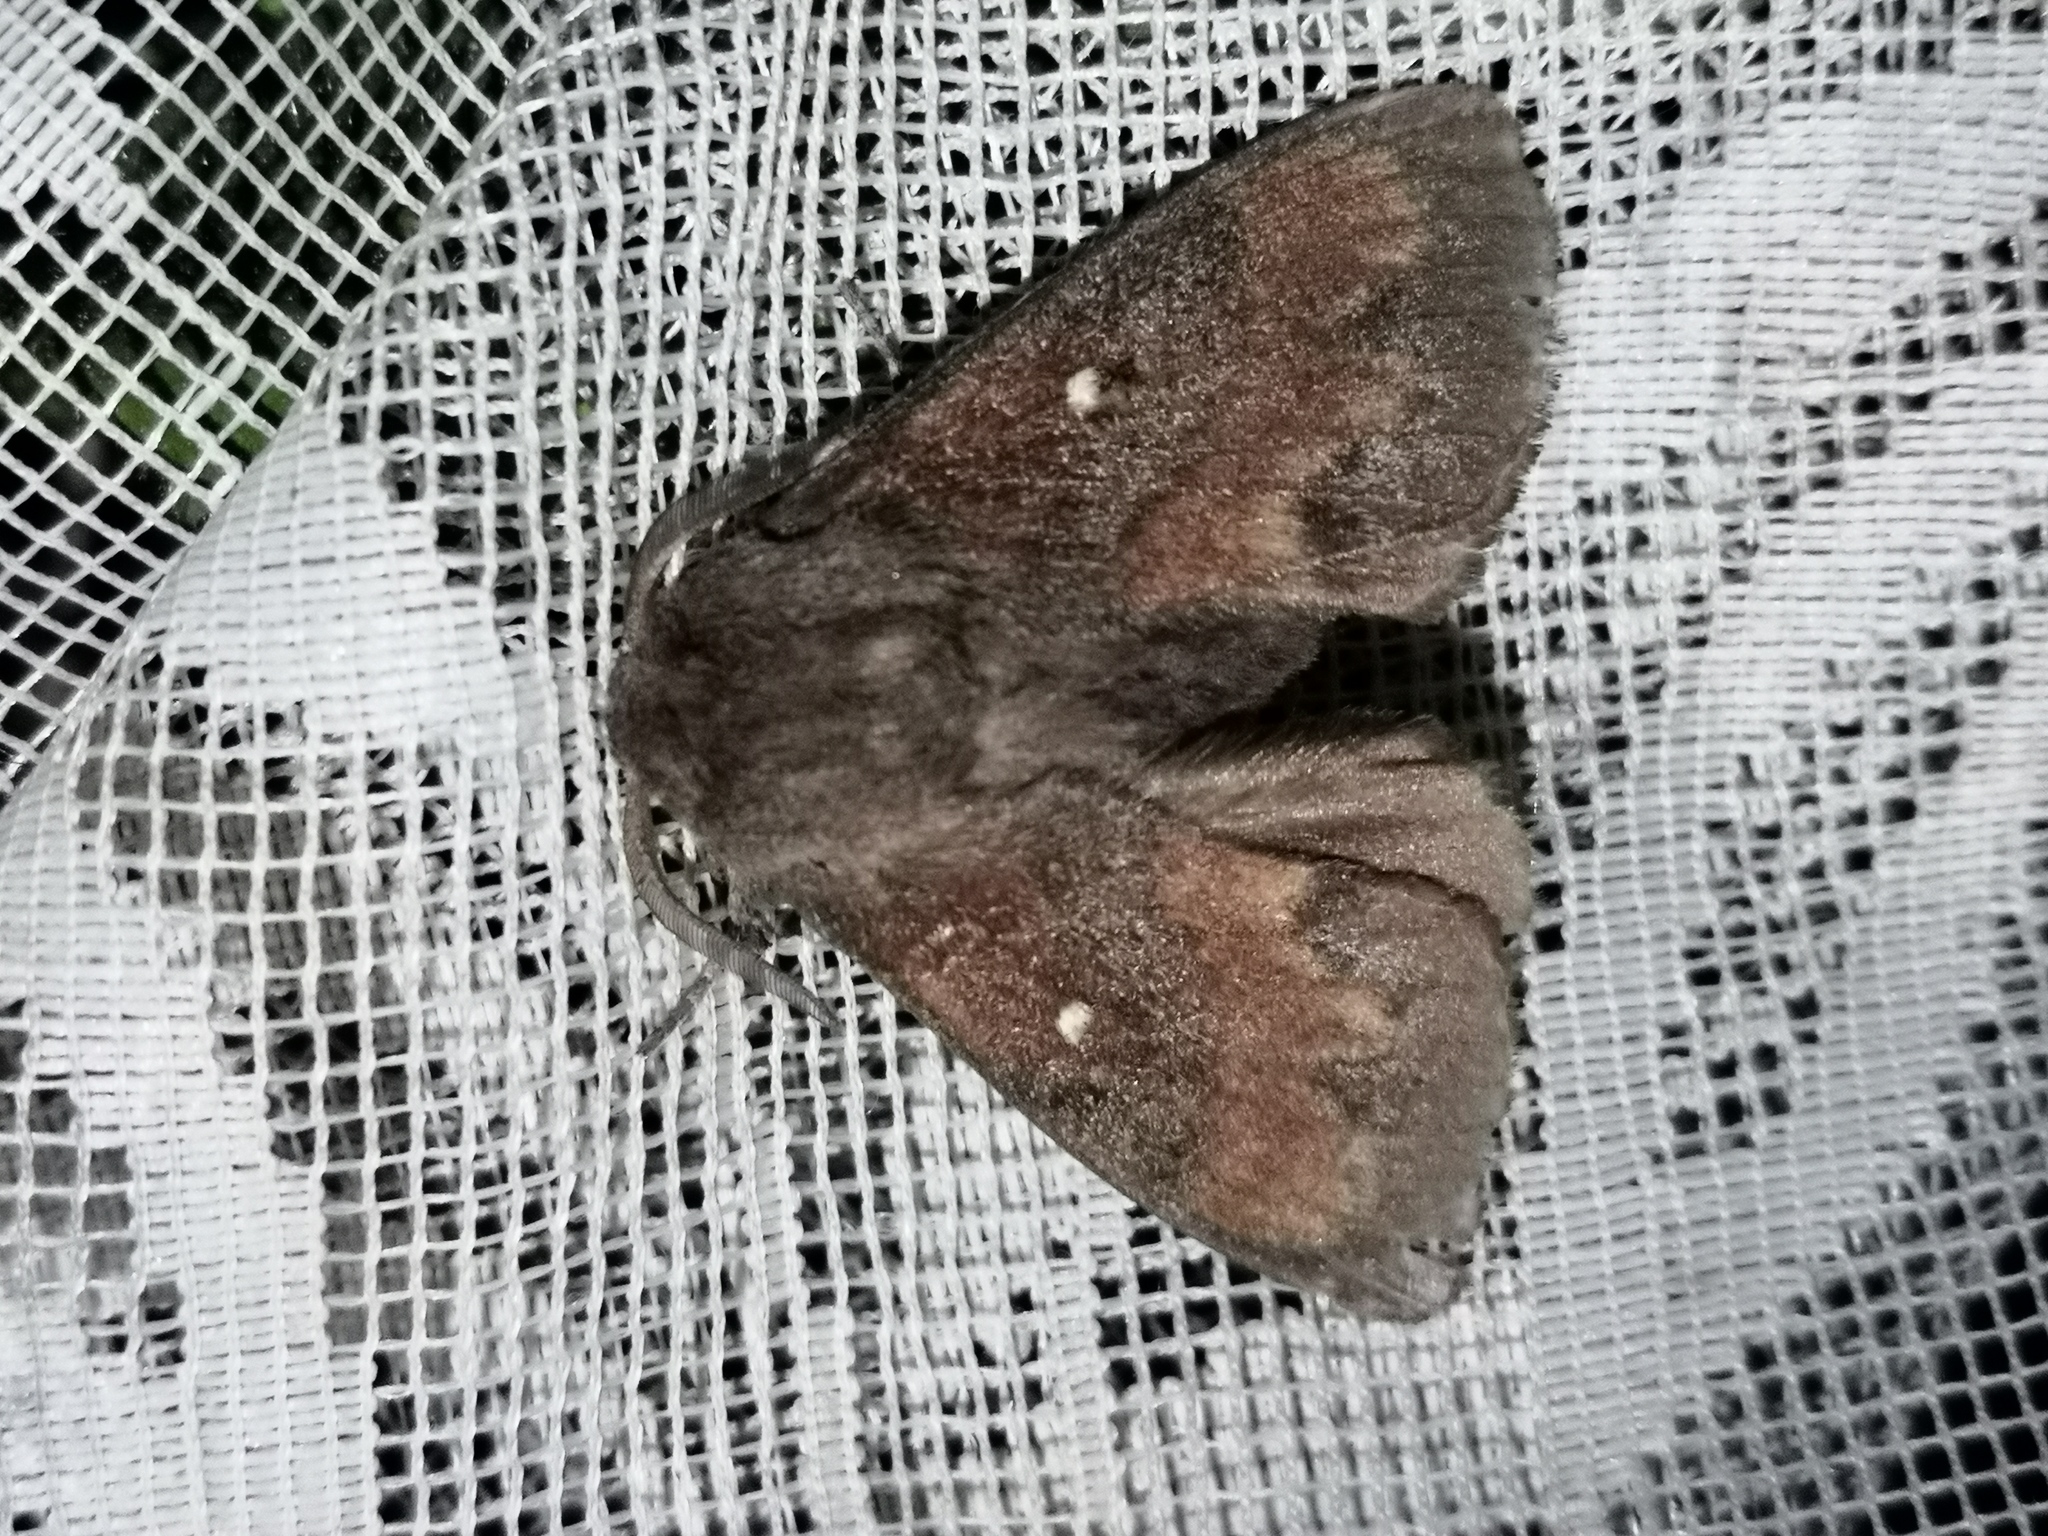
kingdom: Animalia
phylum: Arthropoda
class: Insecta
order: Lepidoptera
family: Lasiocampidae
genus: Dendrolimus
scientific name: Dendrolimus pini
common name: Pine-tree lappet
